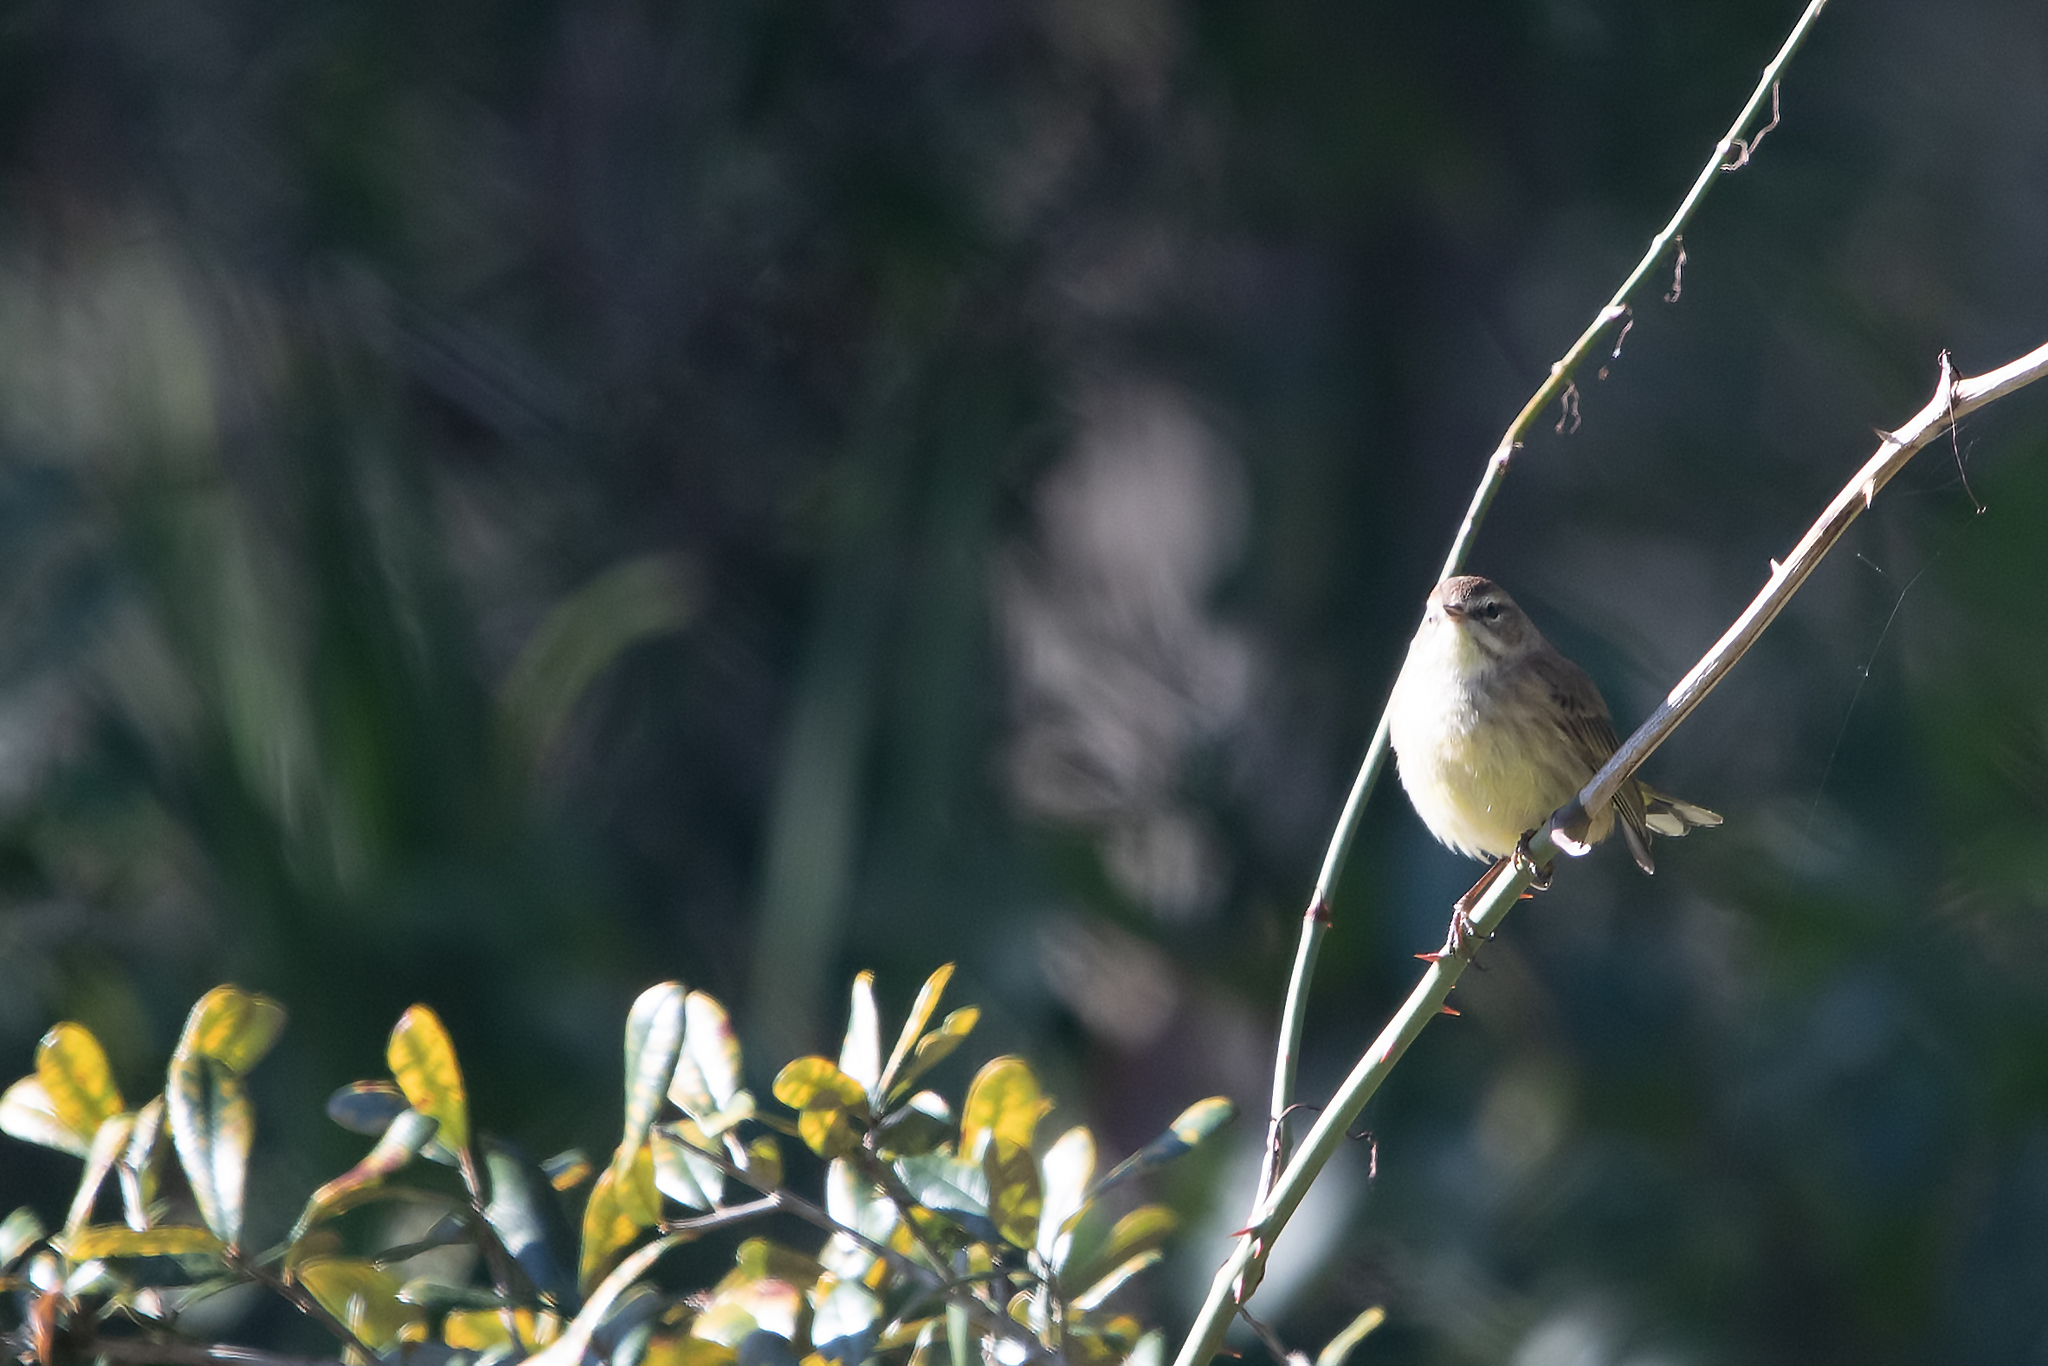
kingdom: Animalia
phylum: Chordata
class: Aves
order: Passeriformes
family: Parulidae
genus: Setophaga
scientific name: Setophaga palmarum
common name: Palm warbler
